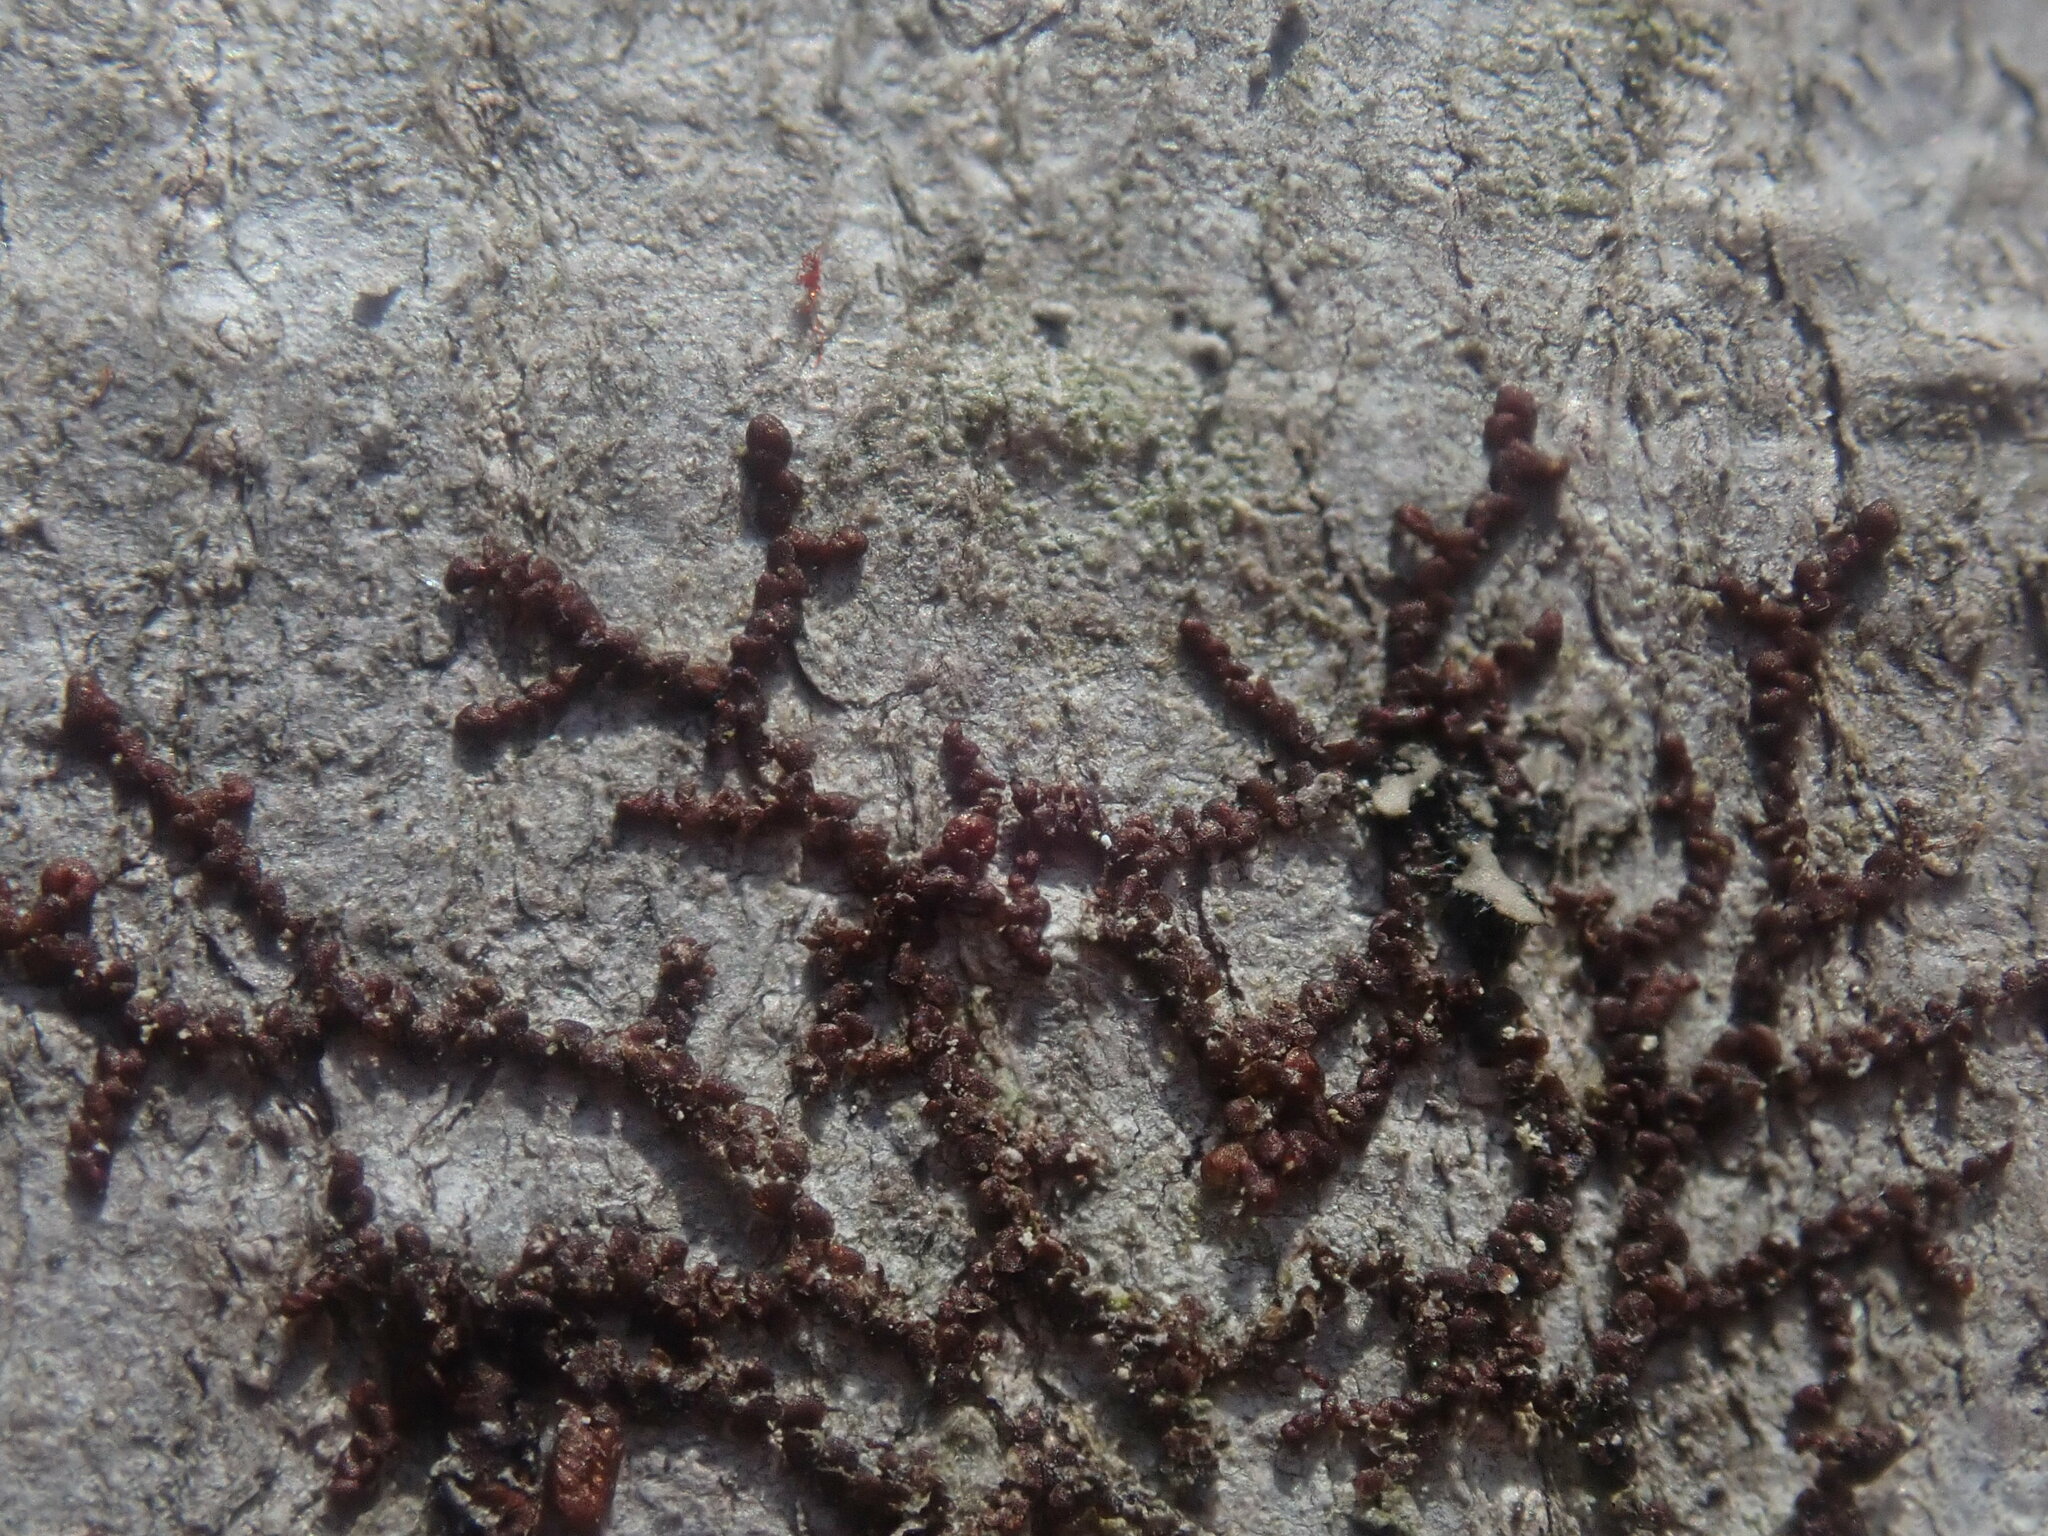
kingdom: Plantae
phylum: Marchantiophyta
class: Jungermanniopsida
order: Porellales
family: Frullaniaceae
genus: Frullania
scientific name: Frullania
